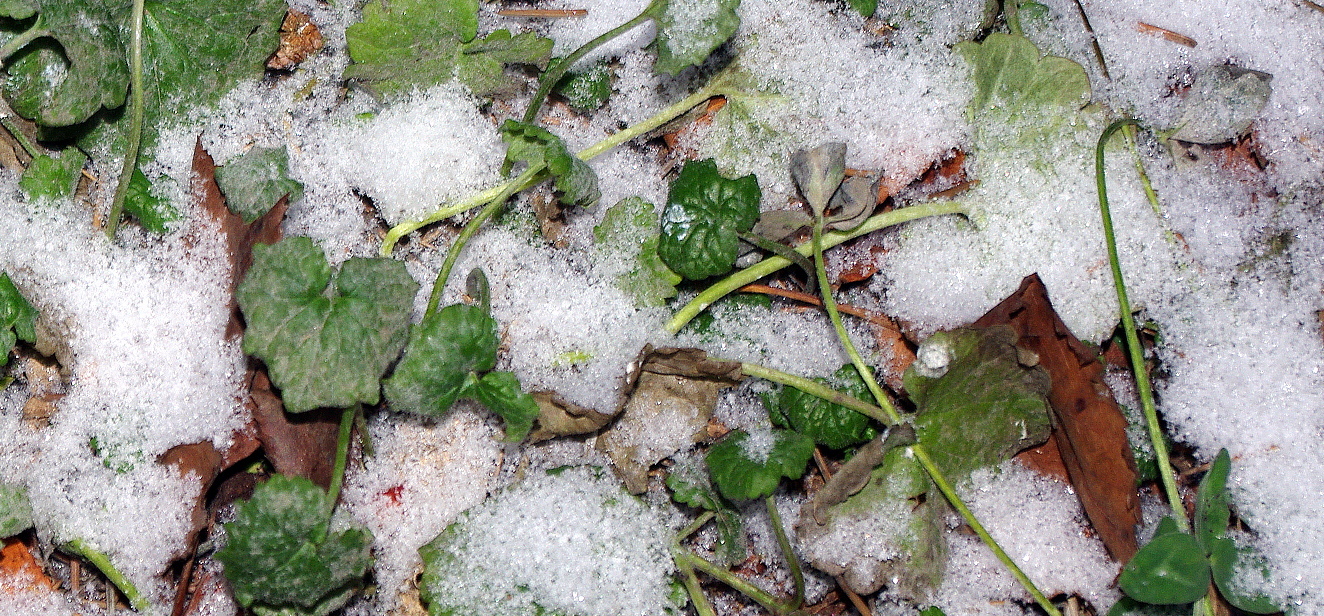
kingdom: Plantae
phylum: Tracheophyta
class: Magnoliopsida
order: Lamiales
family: Lamiaceae
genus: Glechoma
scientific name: Glechoma hederacea
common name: Ground ivy
